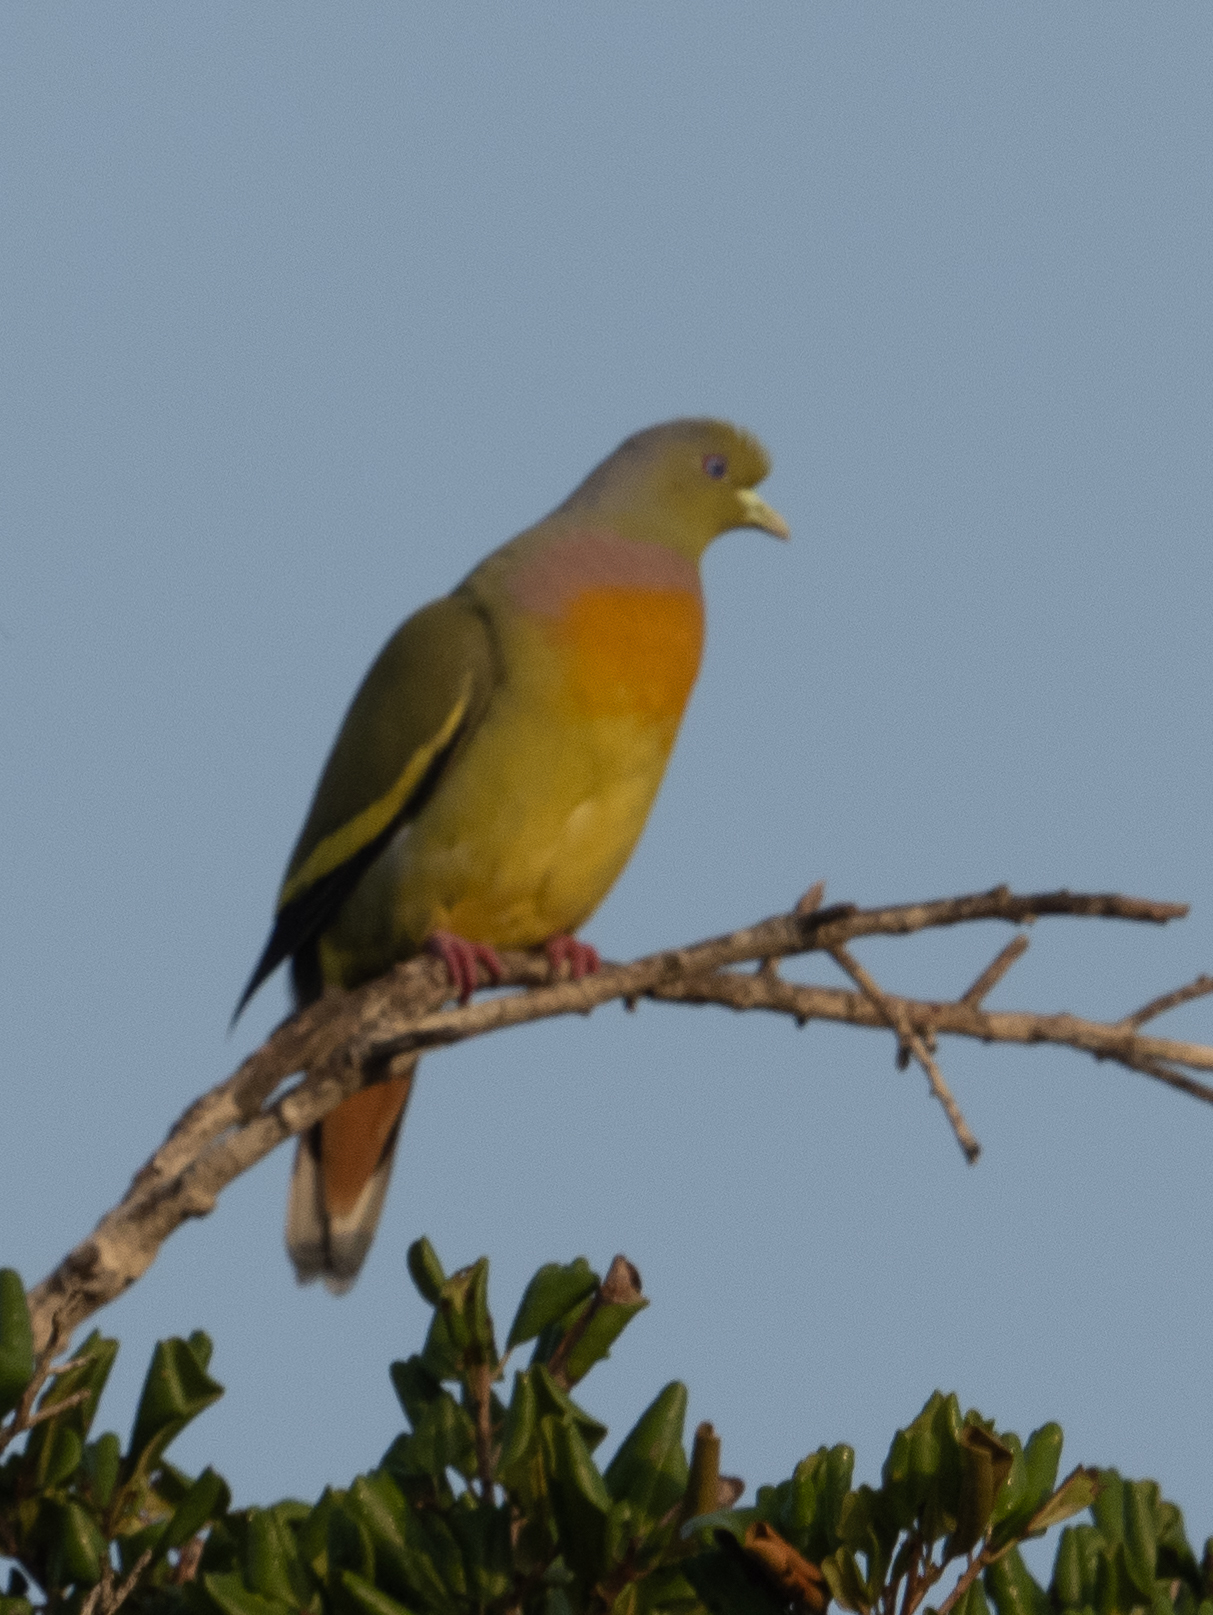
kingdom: Animalia
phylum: Chordata
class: Aves
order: Columbiformes
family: Columbidae
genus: Treron
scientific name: Treron bicinctus
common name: Orange-breasted green pigeon
